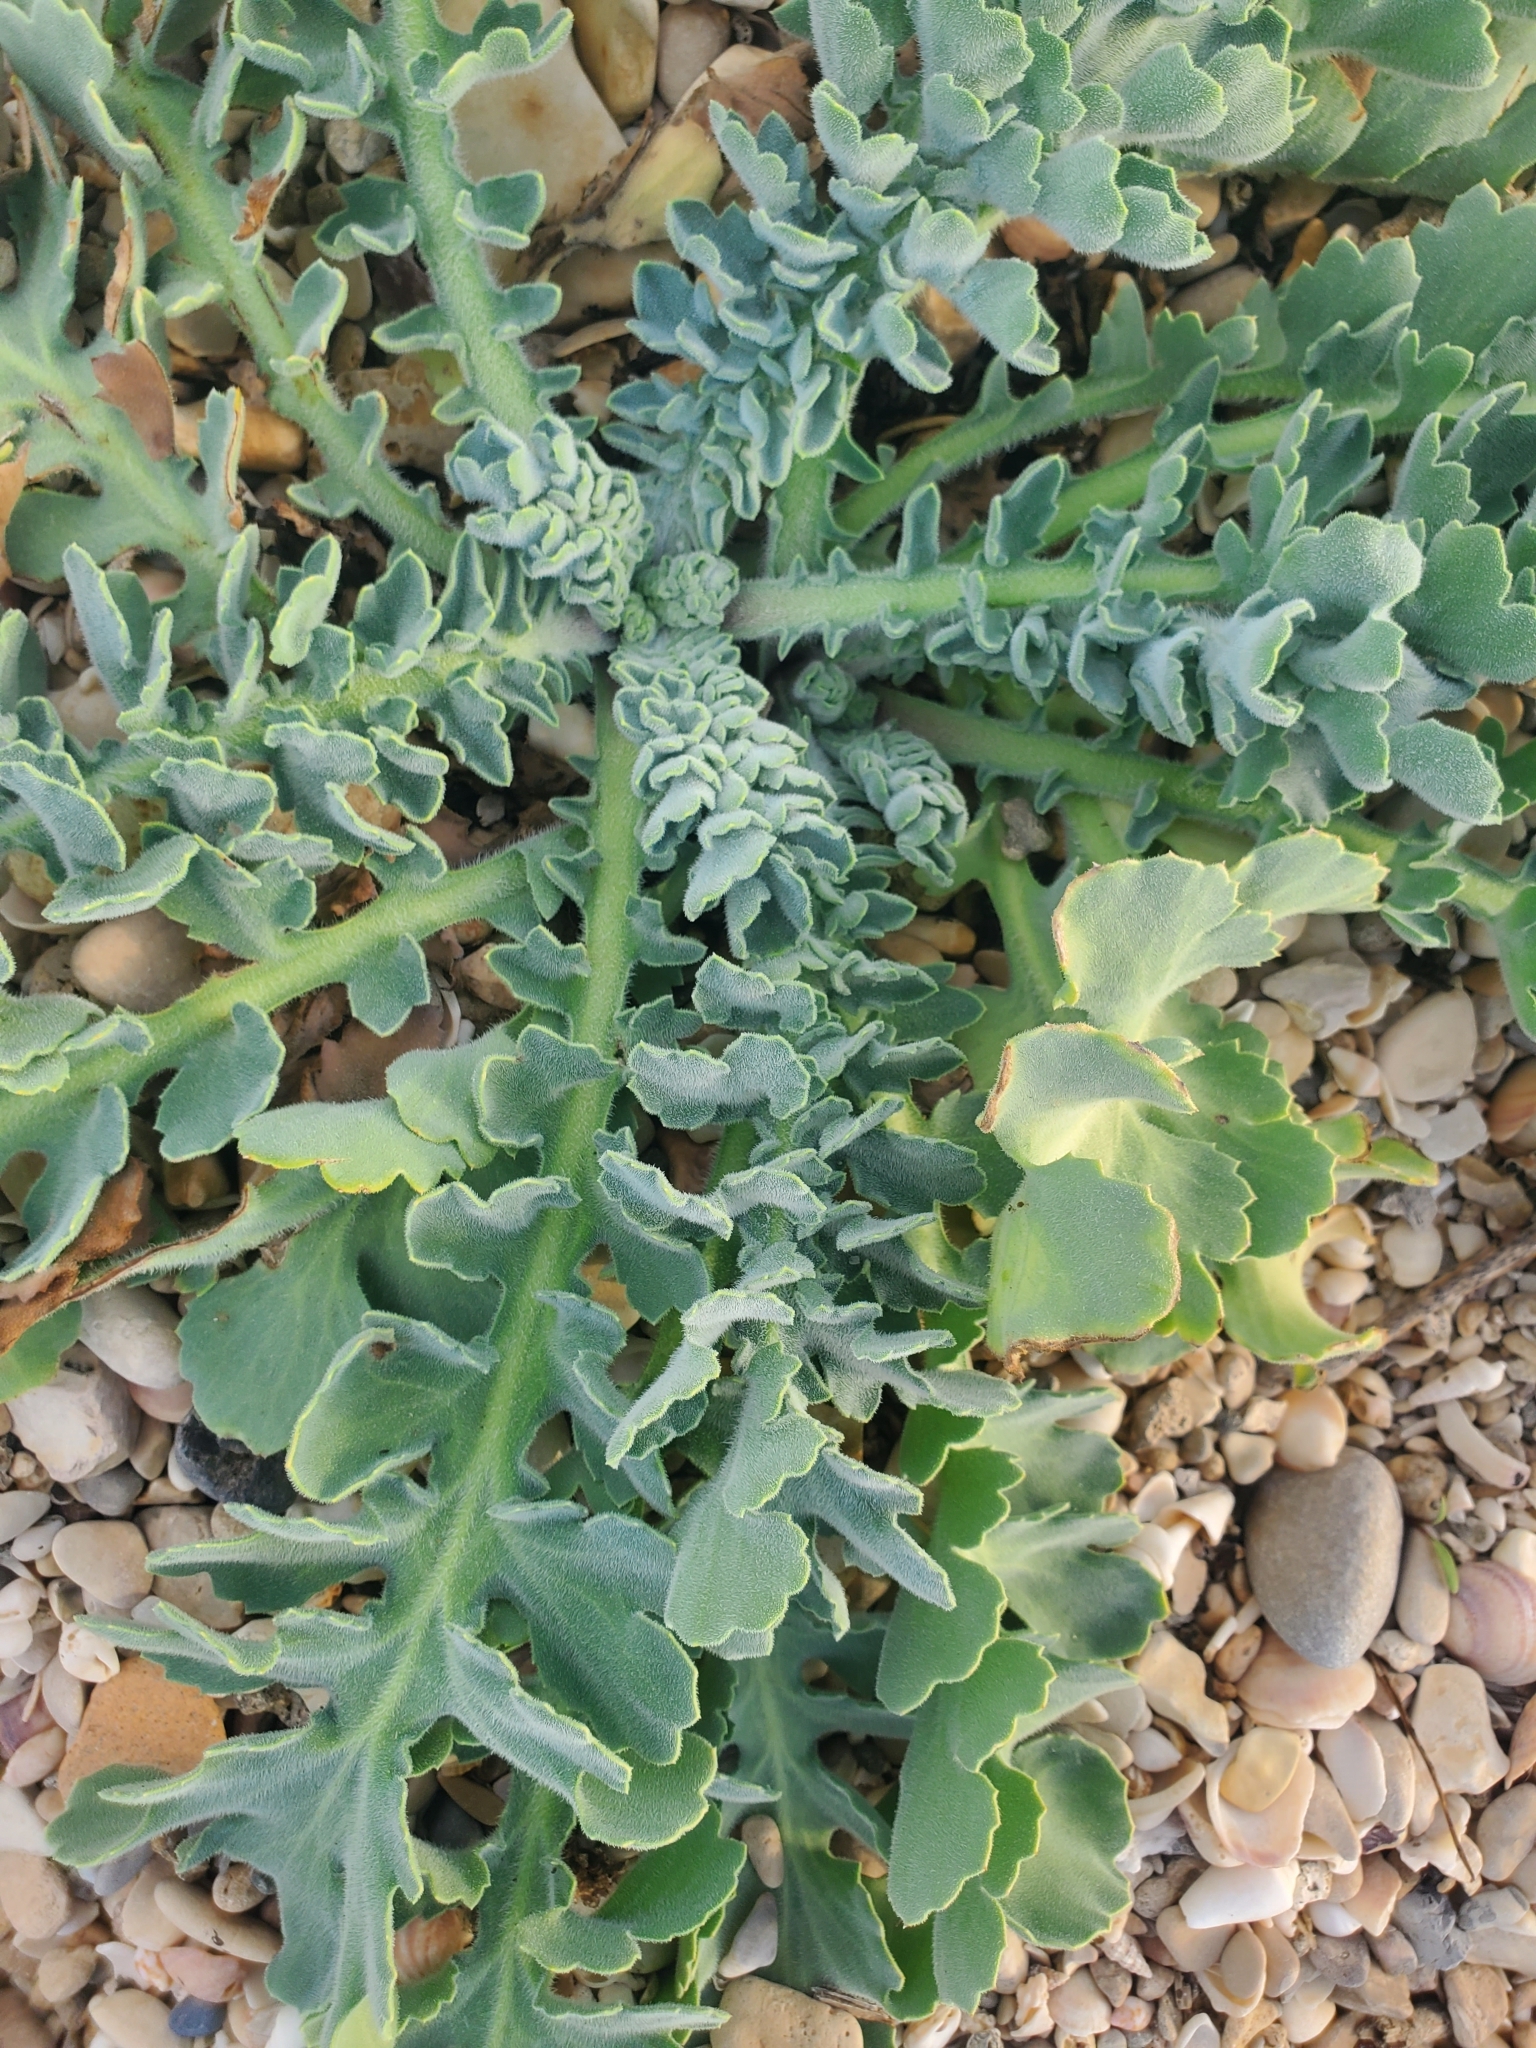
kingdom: Plantae
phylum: Tracheophyta
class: Magnoliopsida
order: Ranunculales
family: Papaveraceae
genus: Glaucium
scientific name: Glaucium flavum
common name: Yellow horned-poppy
